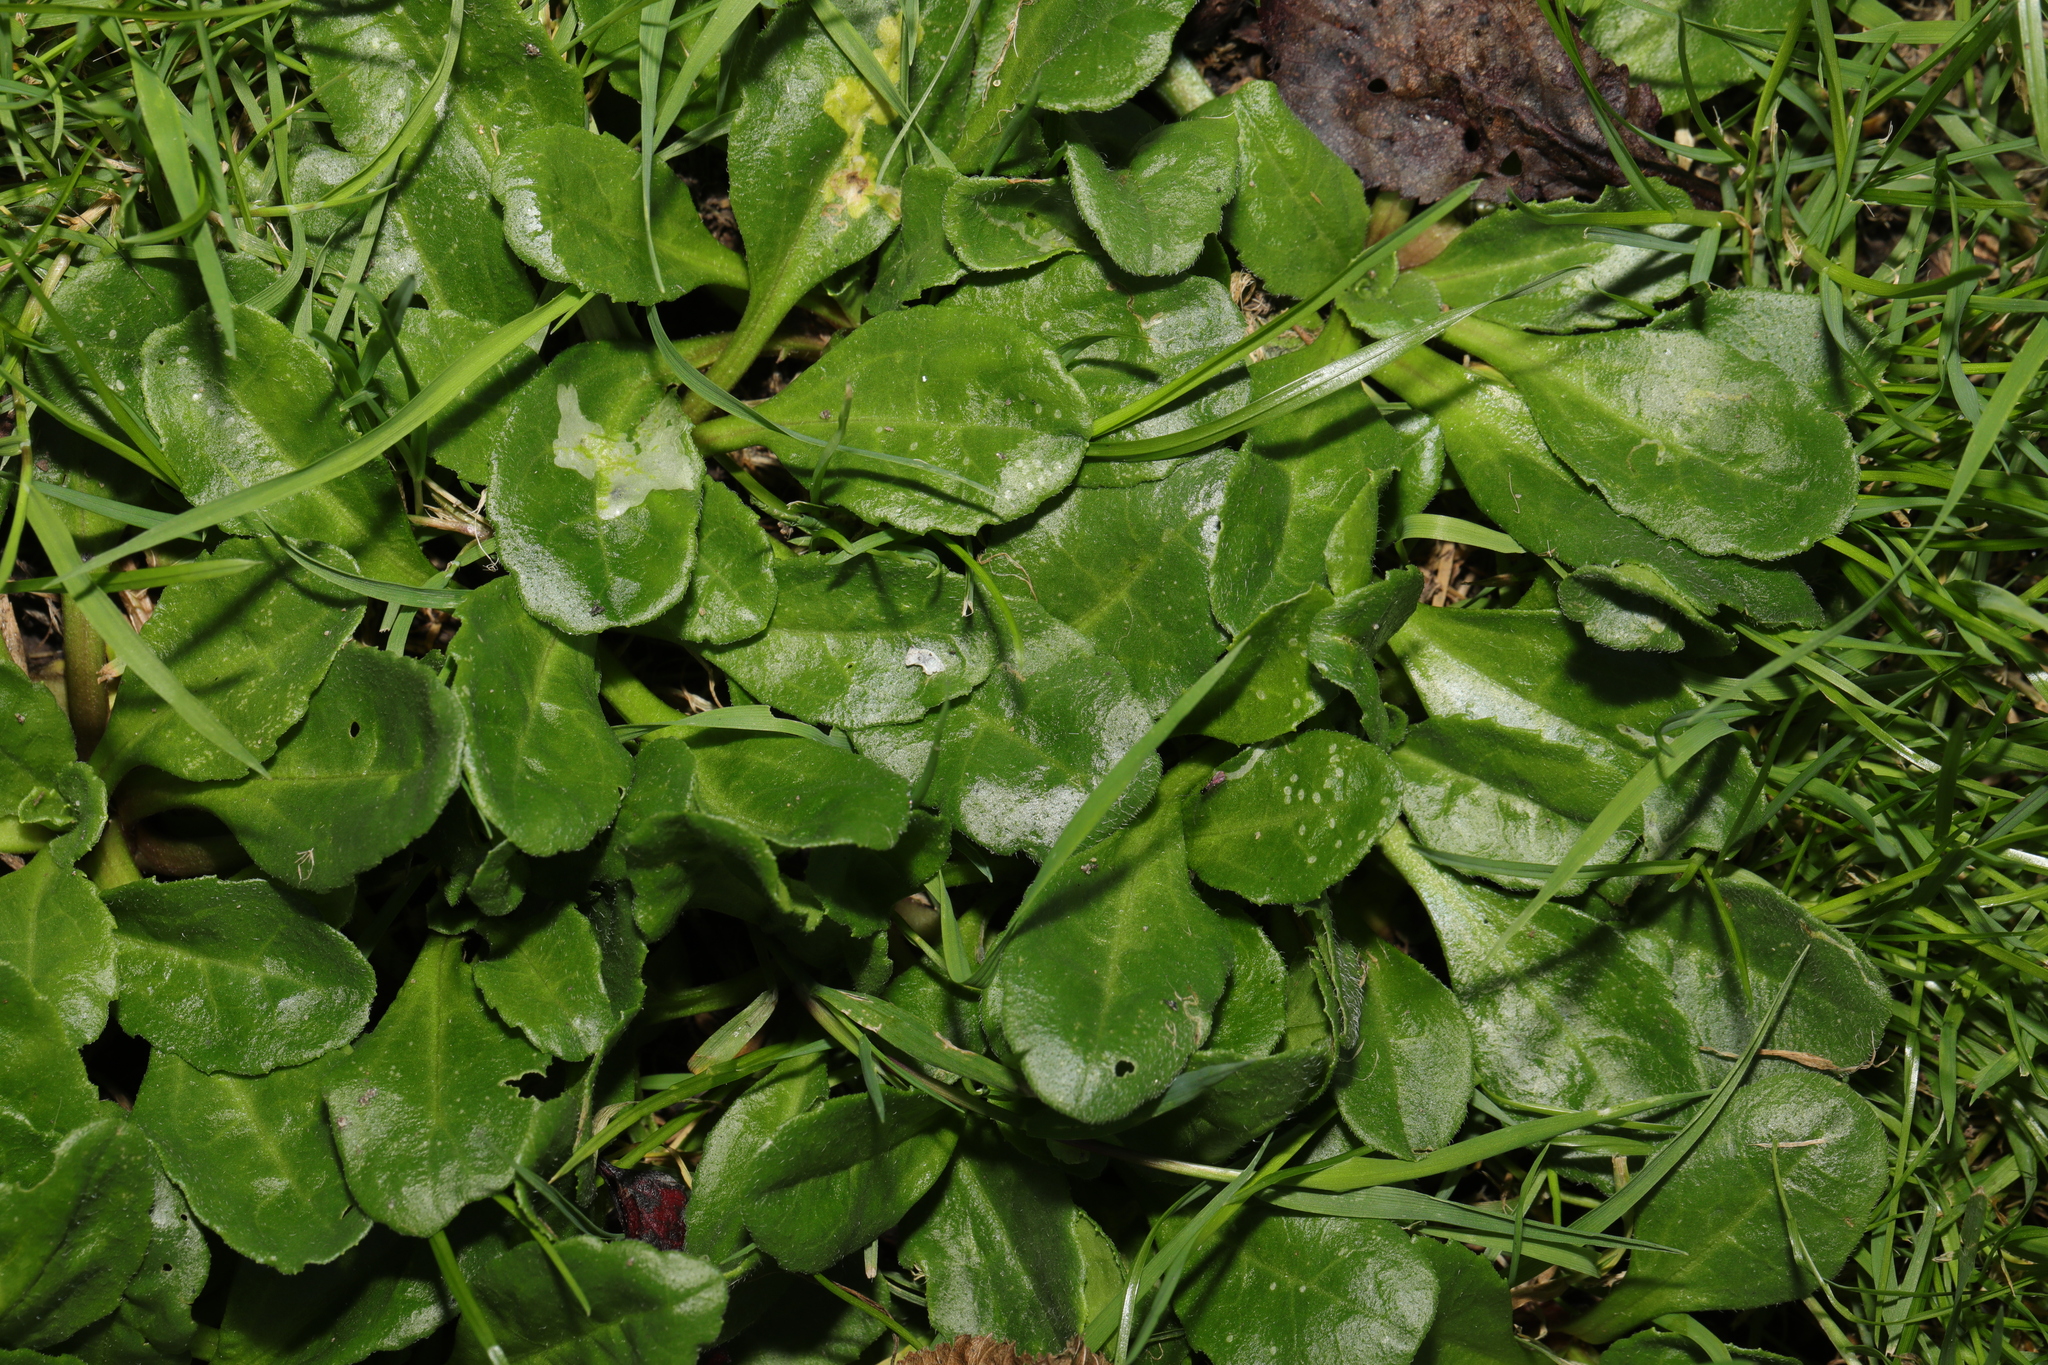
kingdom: Plantae
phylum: Tracheophyta
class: Magnoliopsida
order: Asterales
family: Asteraceae
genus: Bellis
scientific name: Bellis perennis
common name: Lawndaisy
